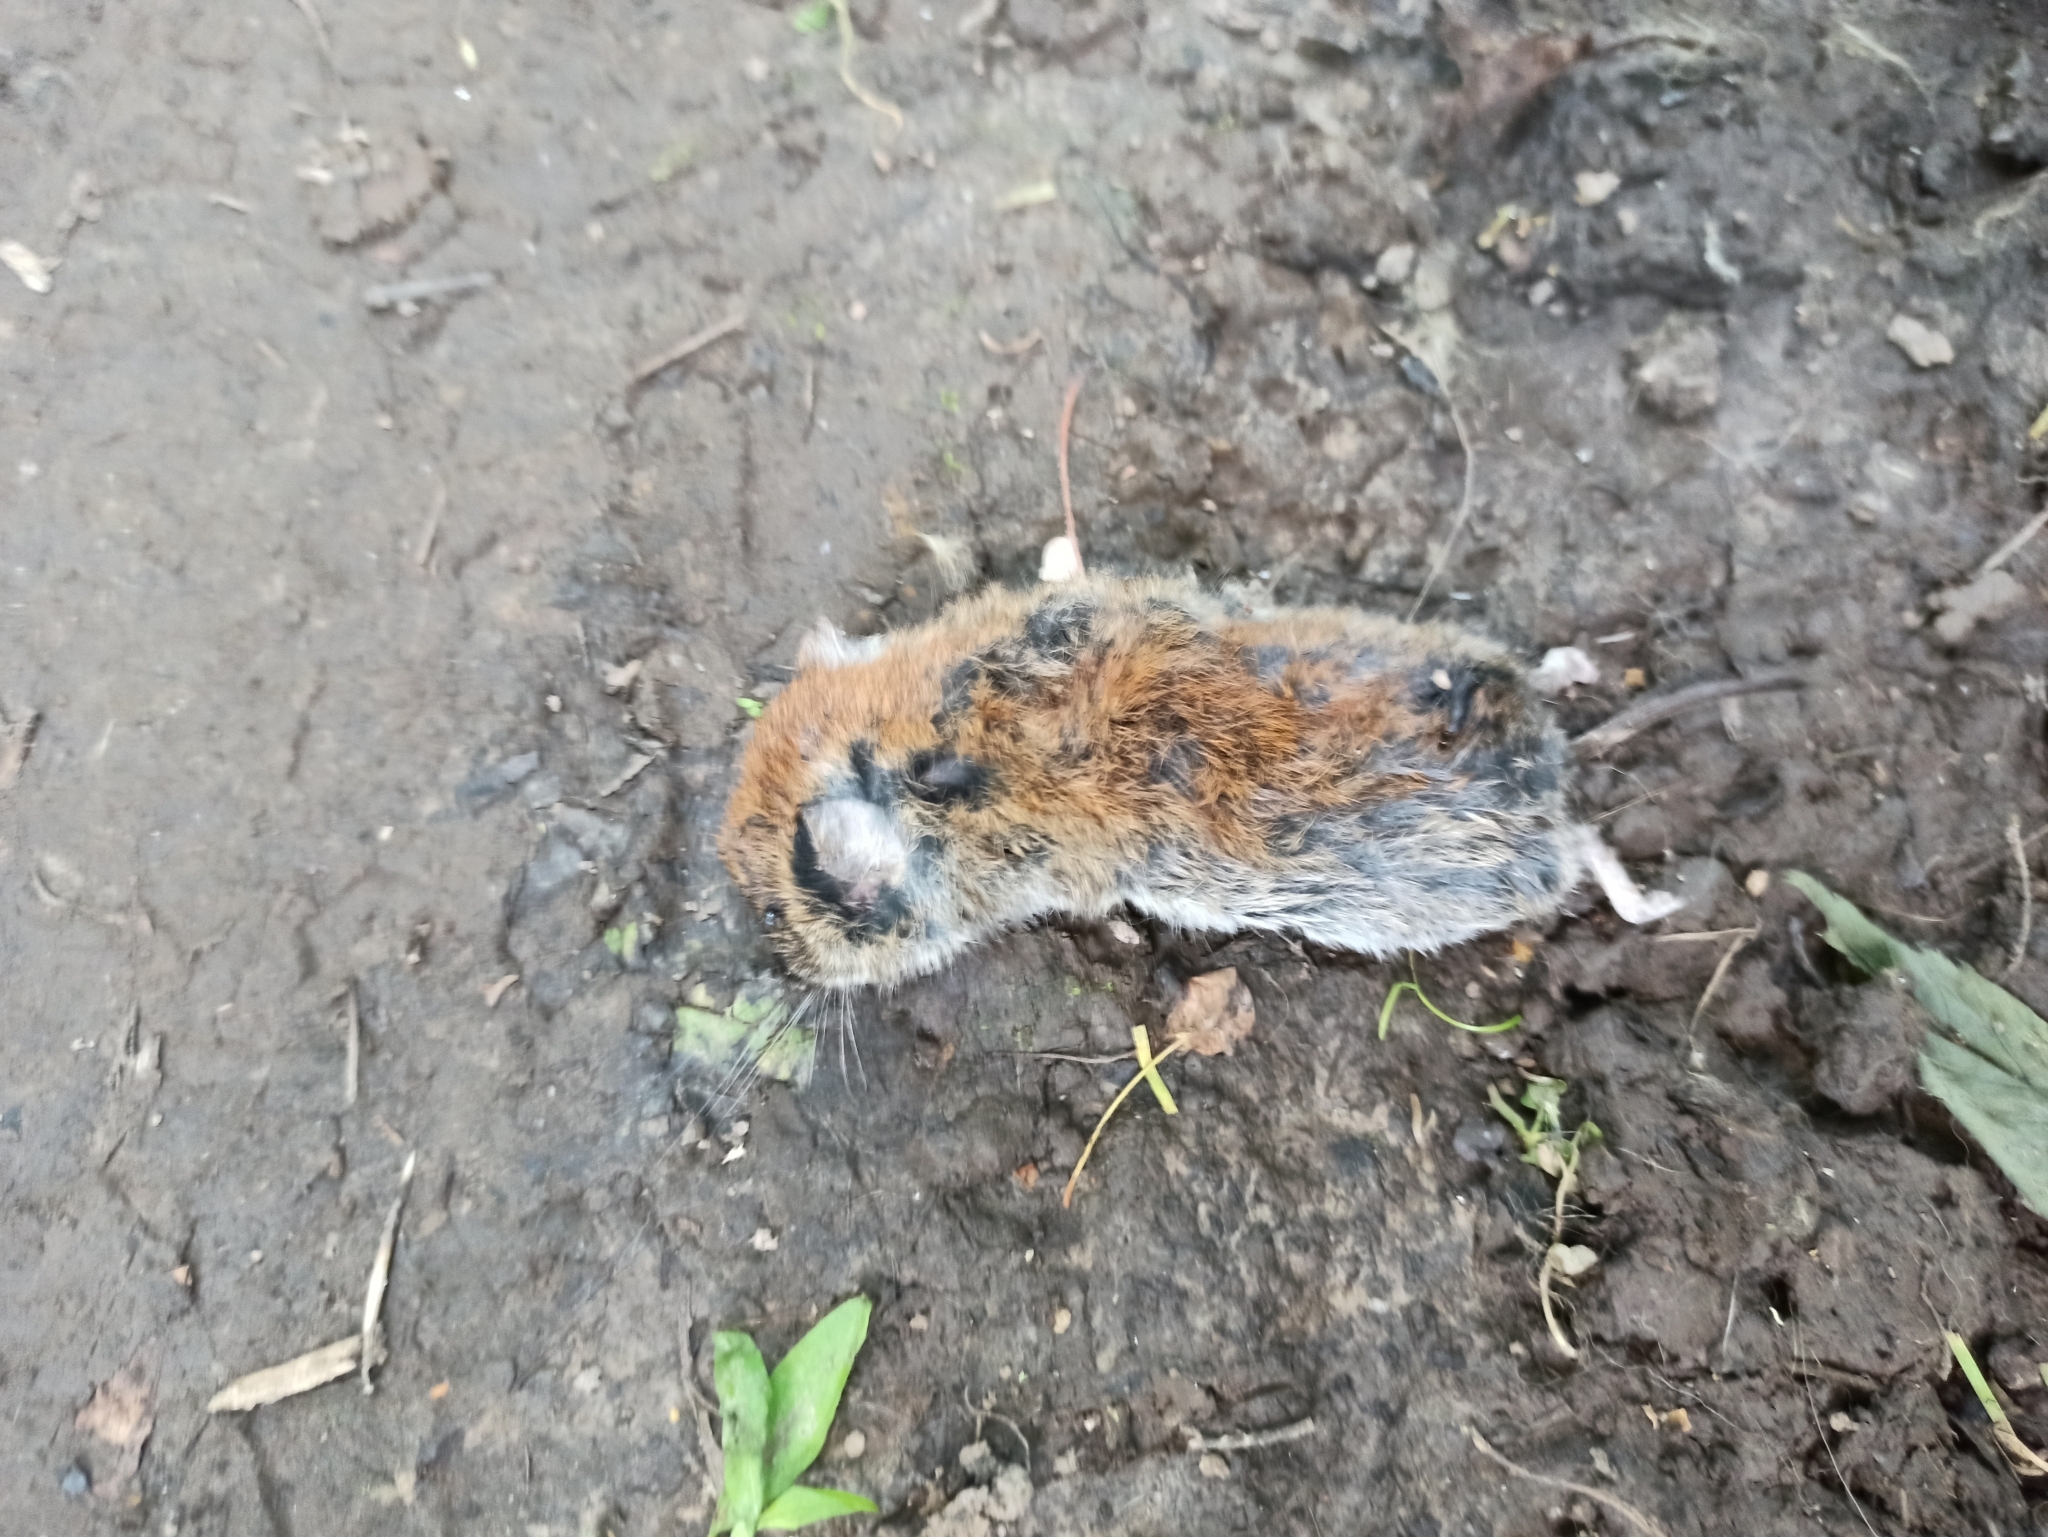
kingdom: Animalia
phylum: Chordata
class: Mammalia
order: Rodentia
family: Cricetidae
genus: Myodes
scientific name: Myodes glareolus
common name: Bank vole
